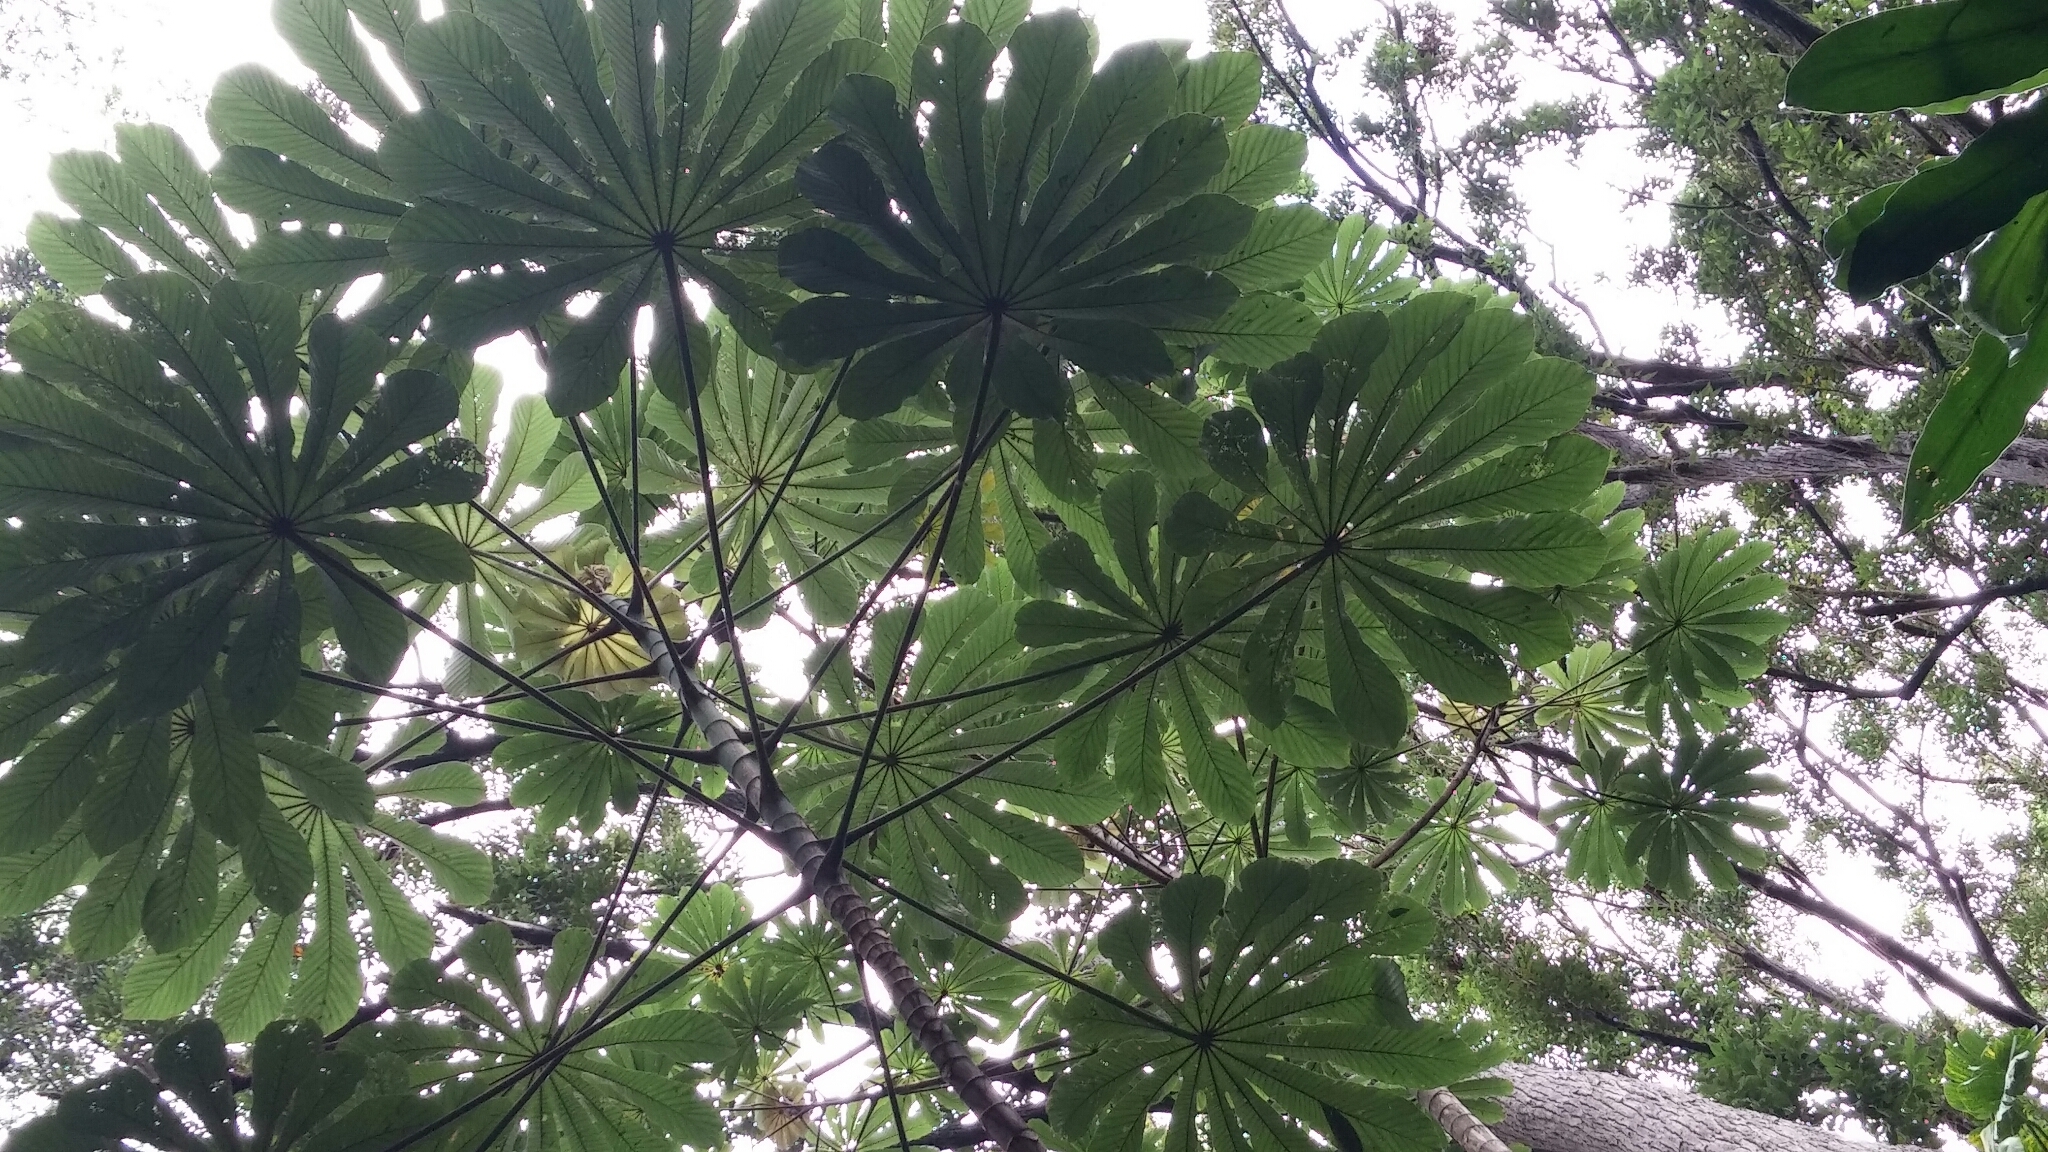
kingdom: Plantae
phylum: Tracheophyta
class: Magnoliopsida
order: Rosales
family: Urticaceae
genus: Cecropia
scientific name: Cecropia obtusifolia
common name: Trumpet tree
